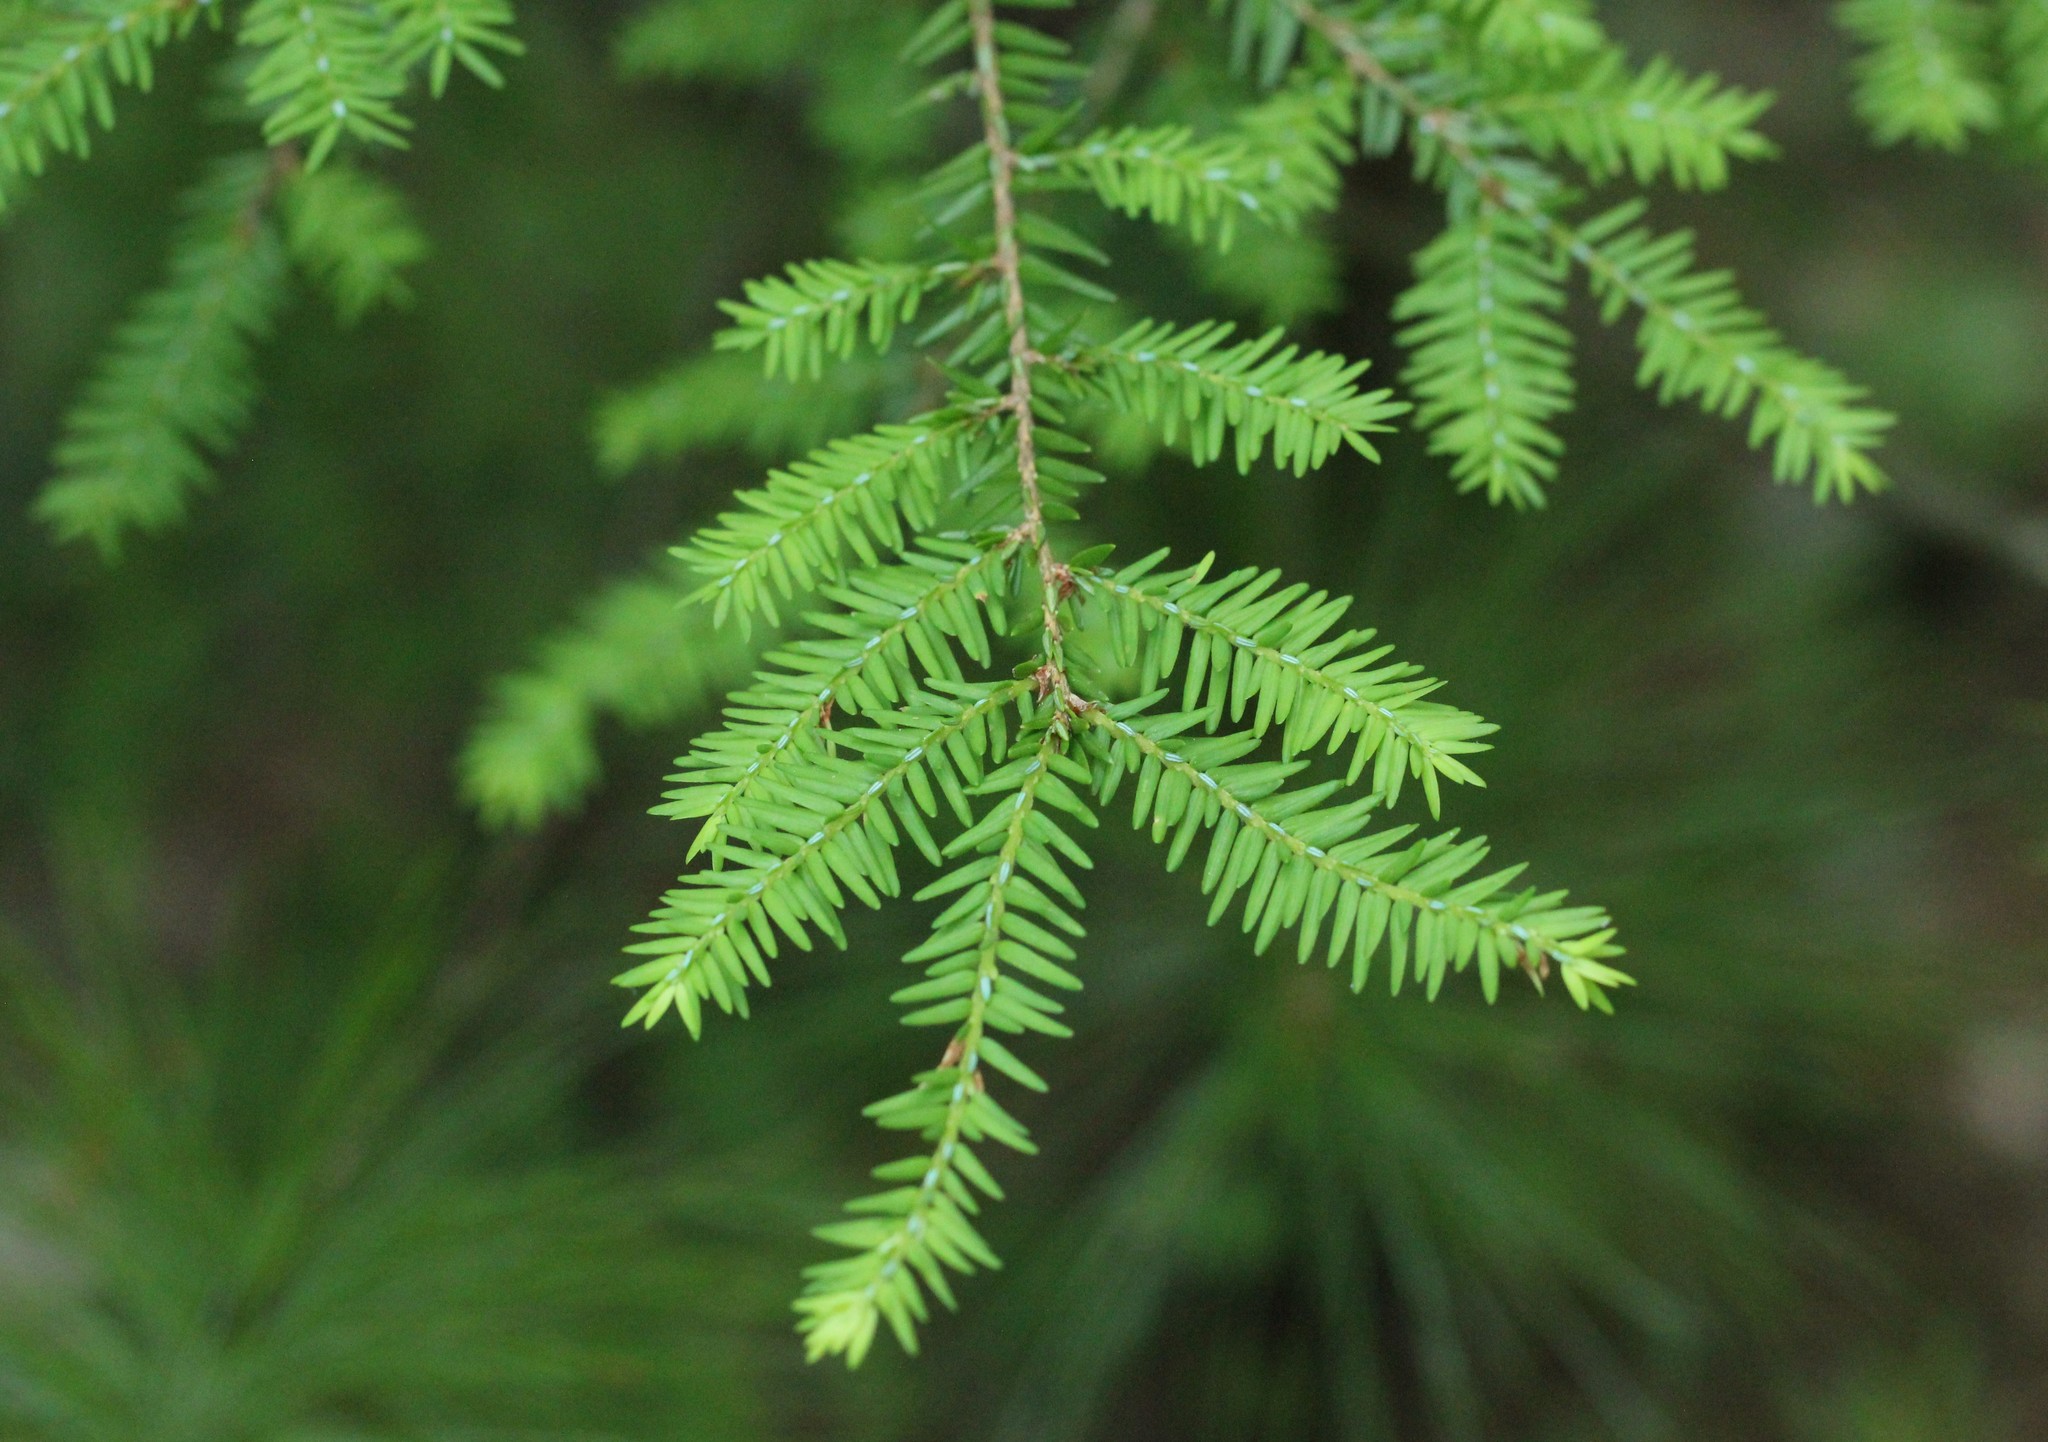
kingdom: Plantae
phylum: Tracheophyta
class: Pinopsida
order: Pinales
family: Pinaceae
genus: Tsuga
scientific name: Tsuga canadensis
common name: Eastern hemlock
